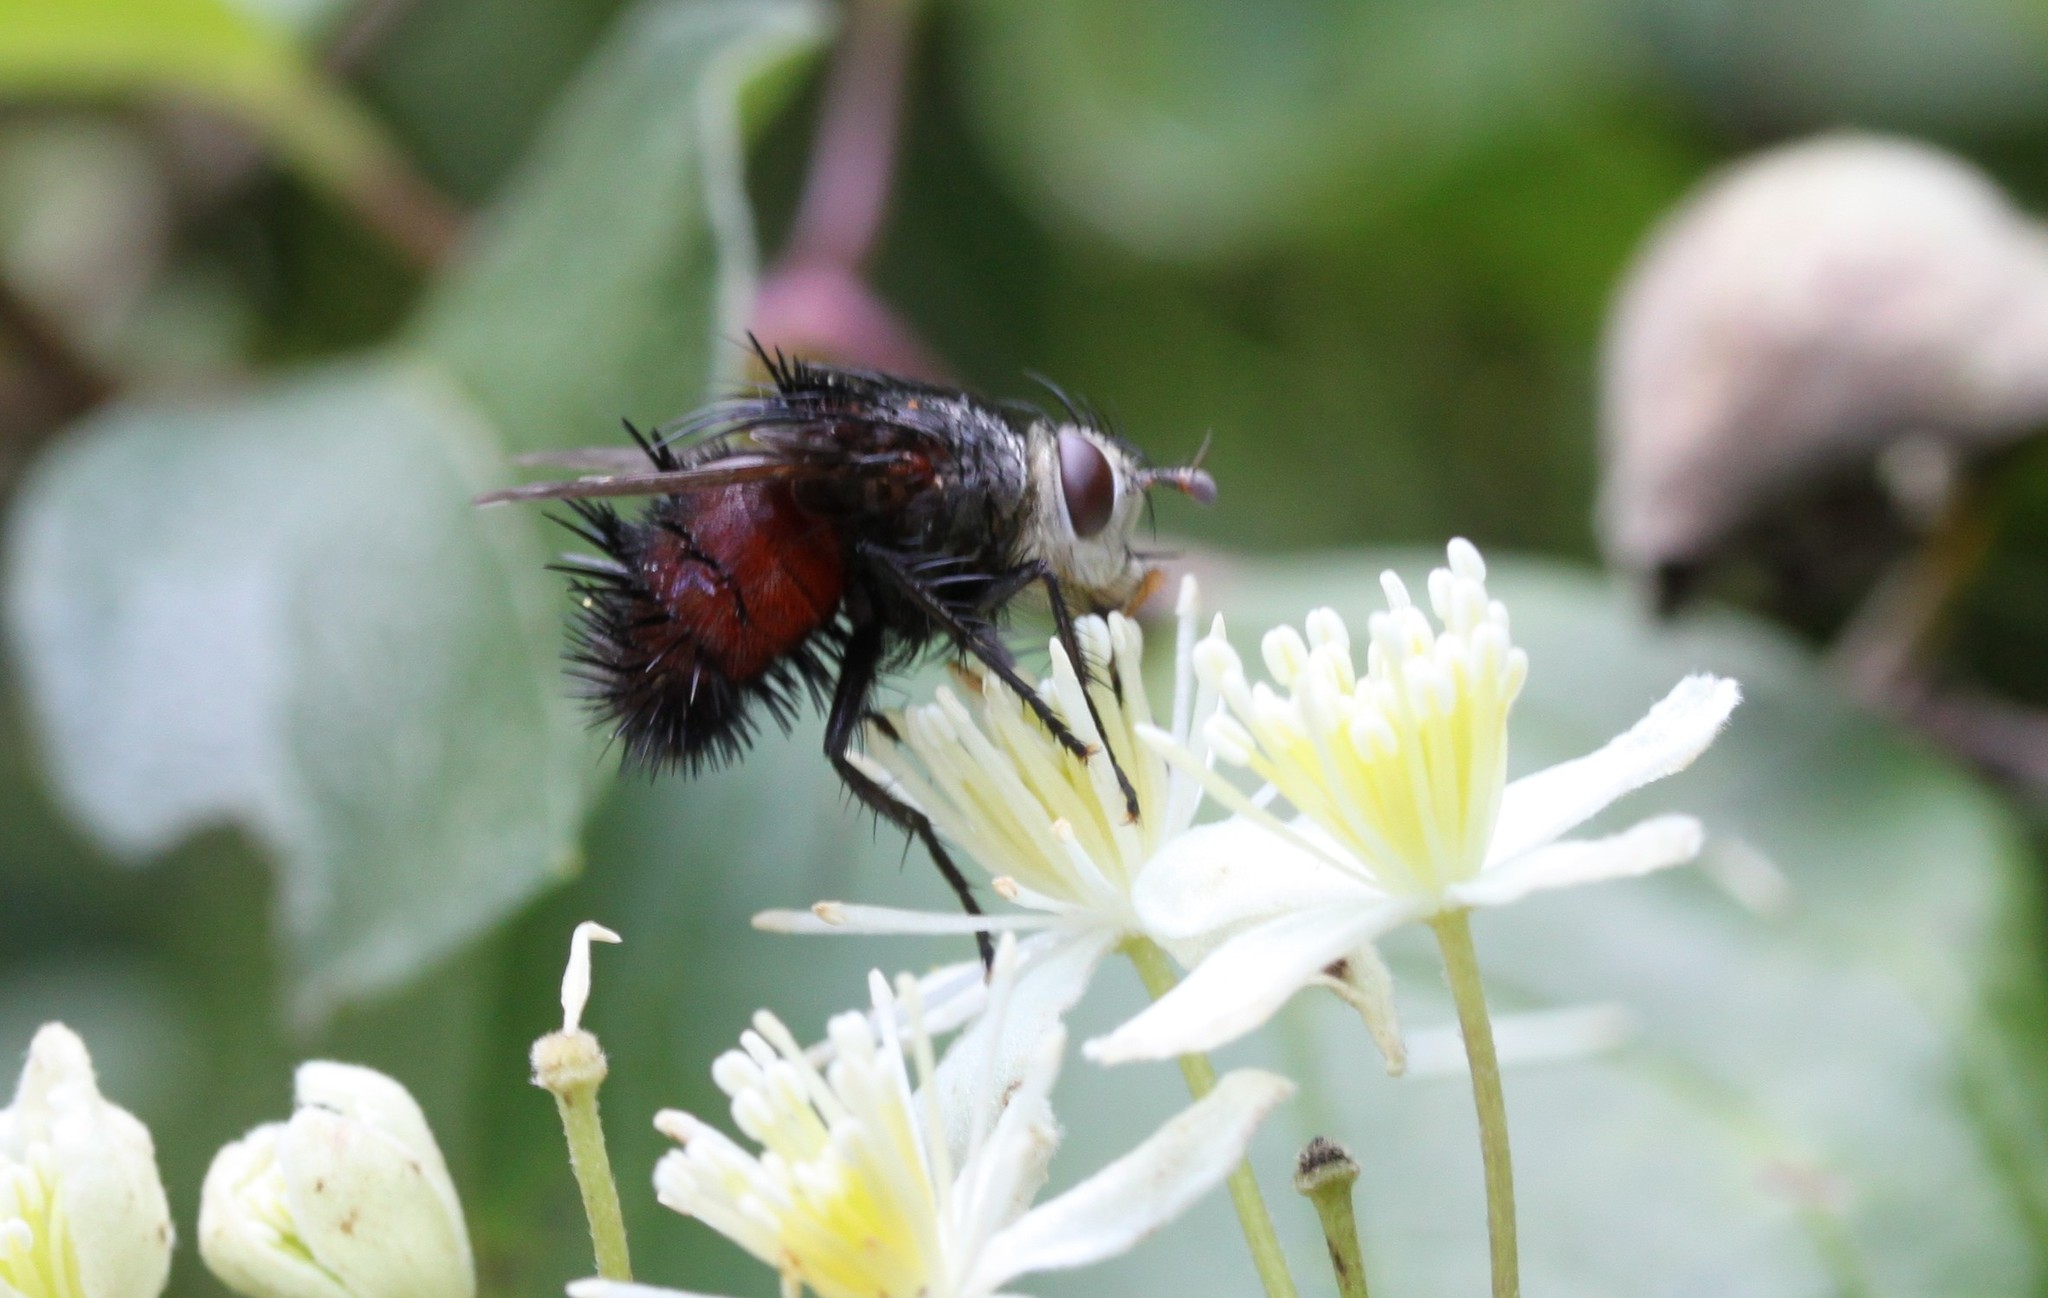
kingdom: Animalia
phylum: Arthropoda
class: Insecta
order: Diptera
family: Tachinidae
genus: Juriniopsis
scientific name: Juriniopsis adusta
